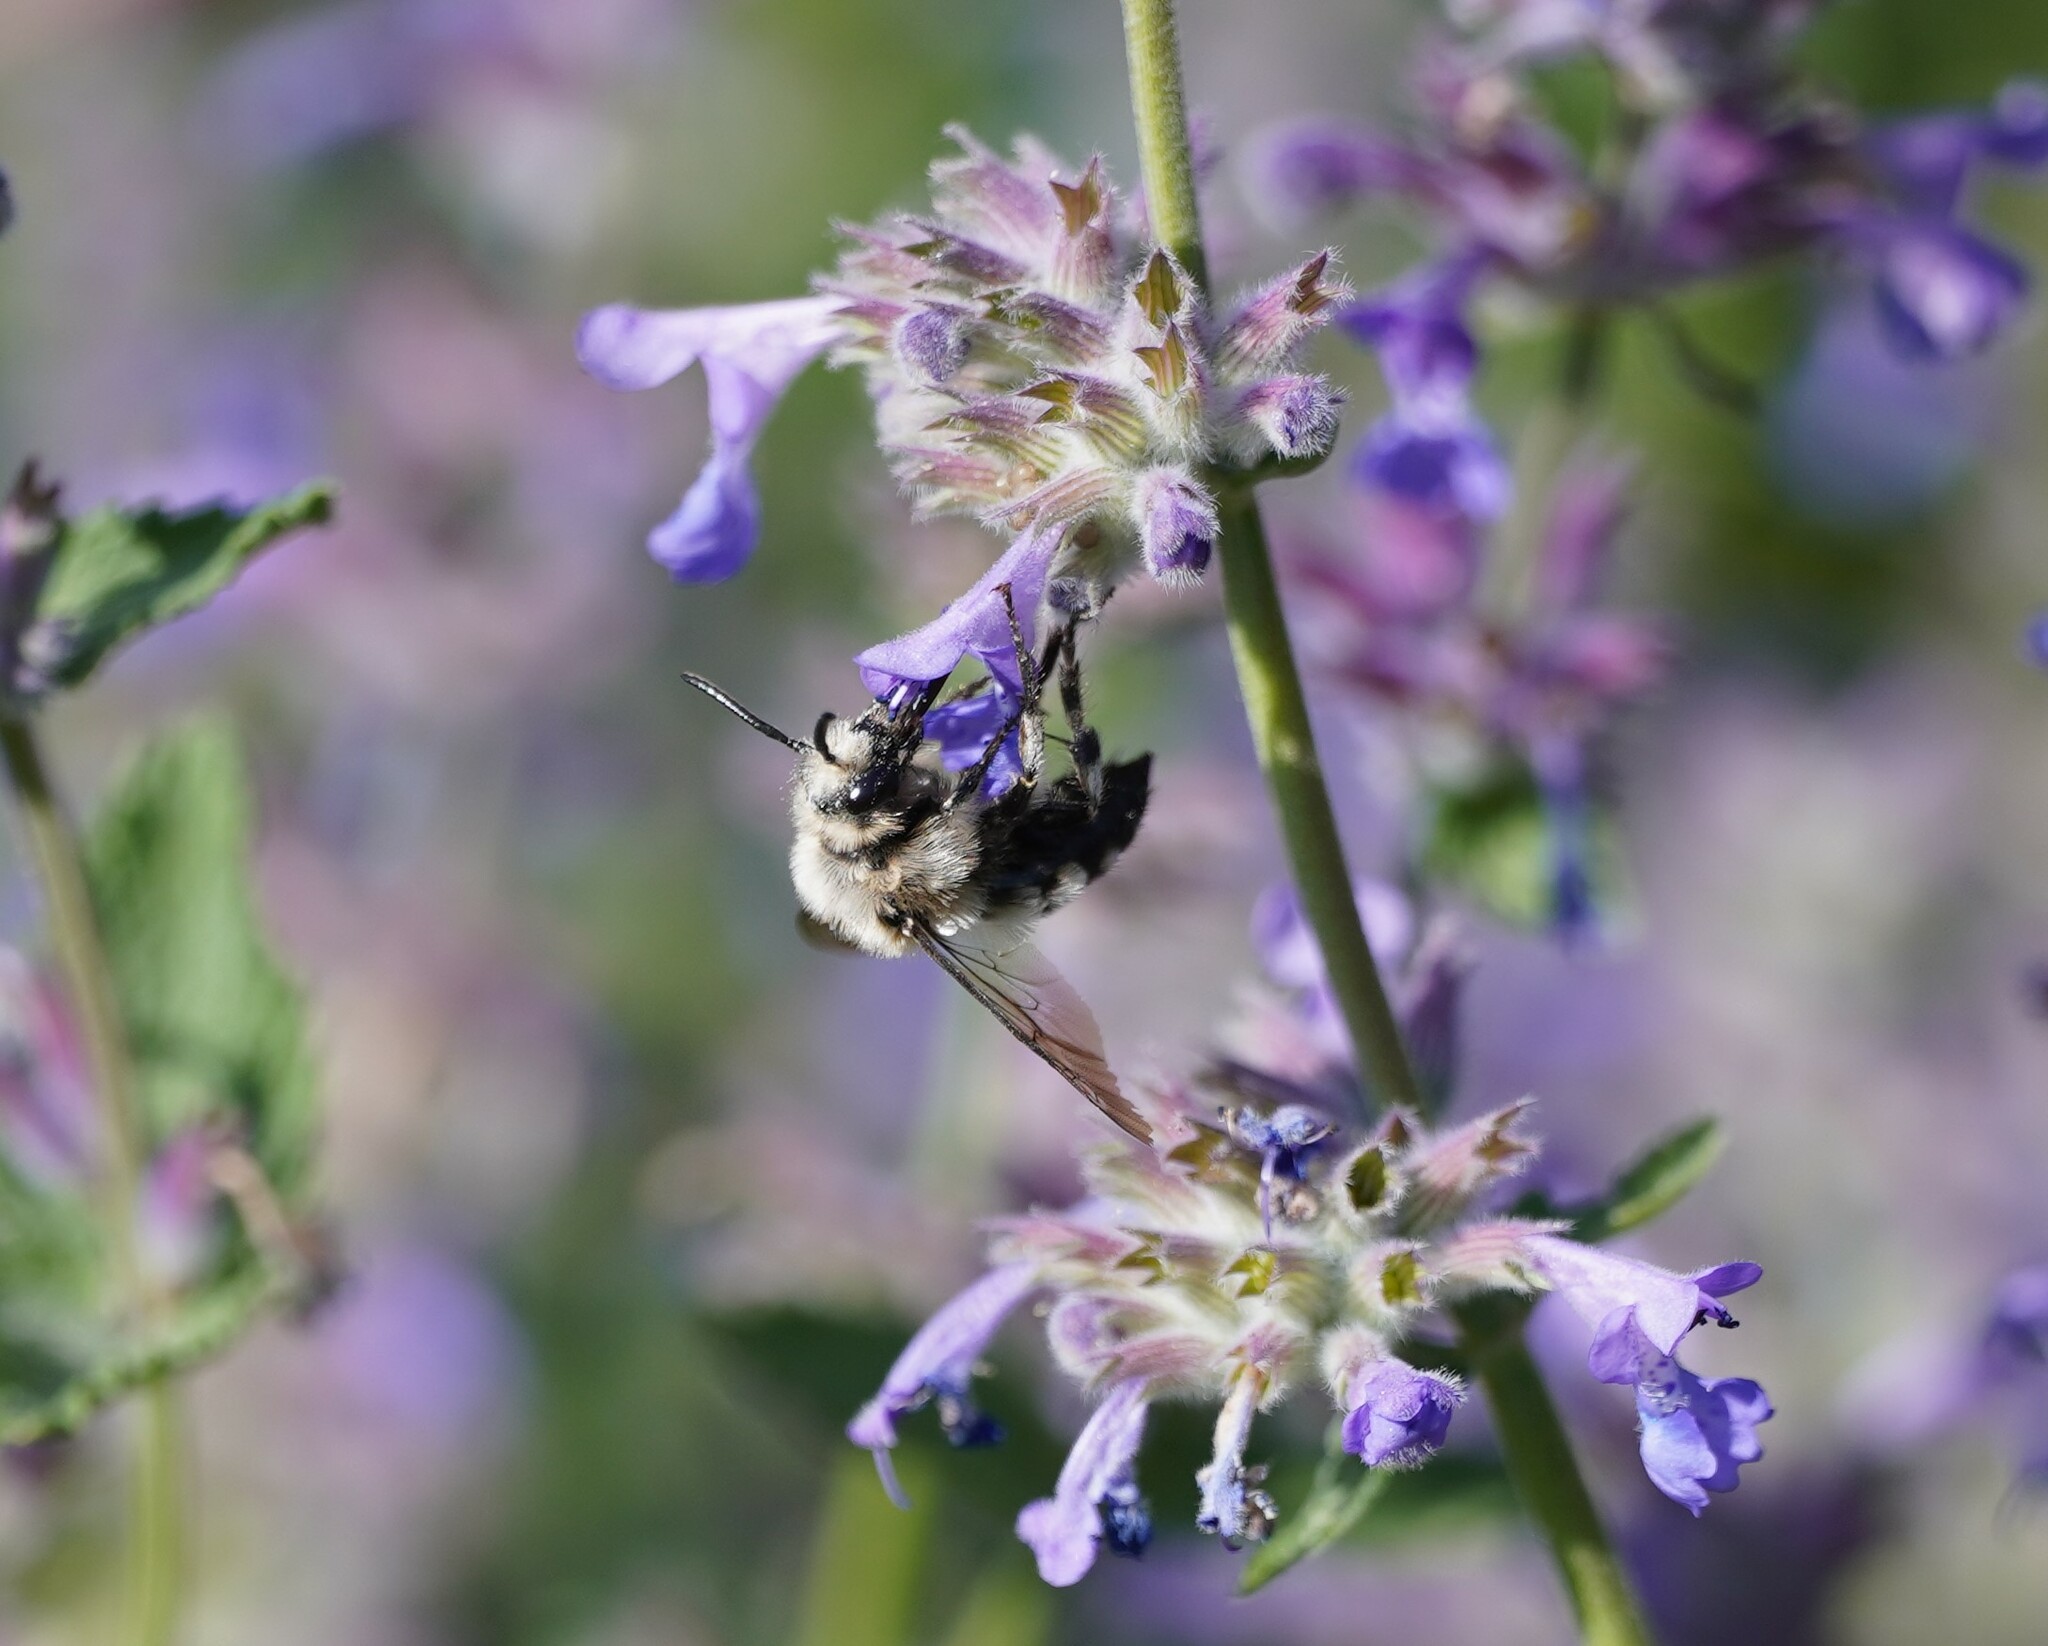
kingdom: Animalia
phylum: Arthropoda
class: Insecta
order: Hymenoptera
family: Apidae
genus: Melecta
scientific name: Melecta albifrons
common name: Common mourning bee
